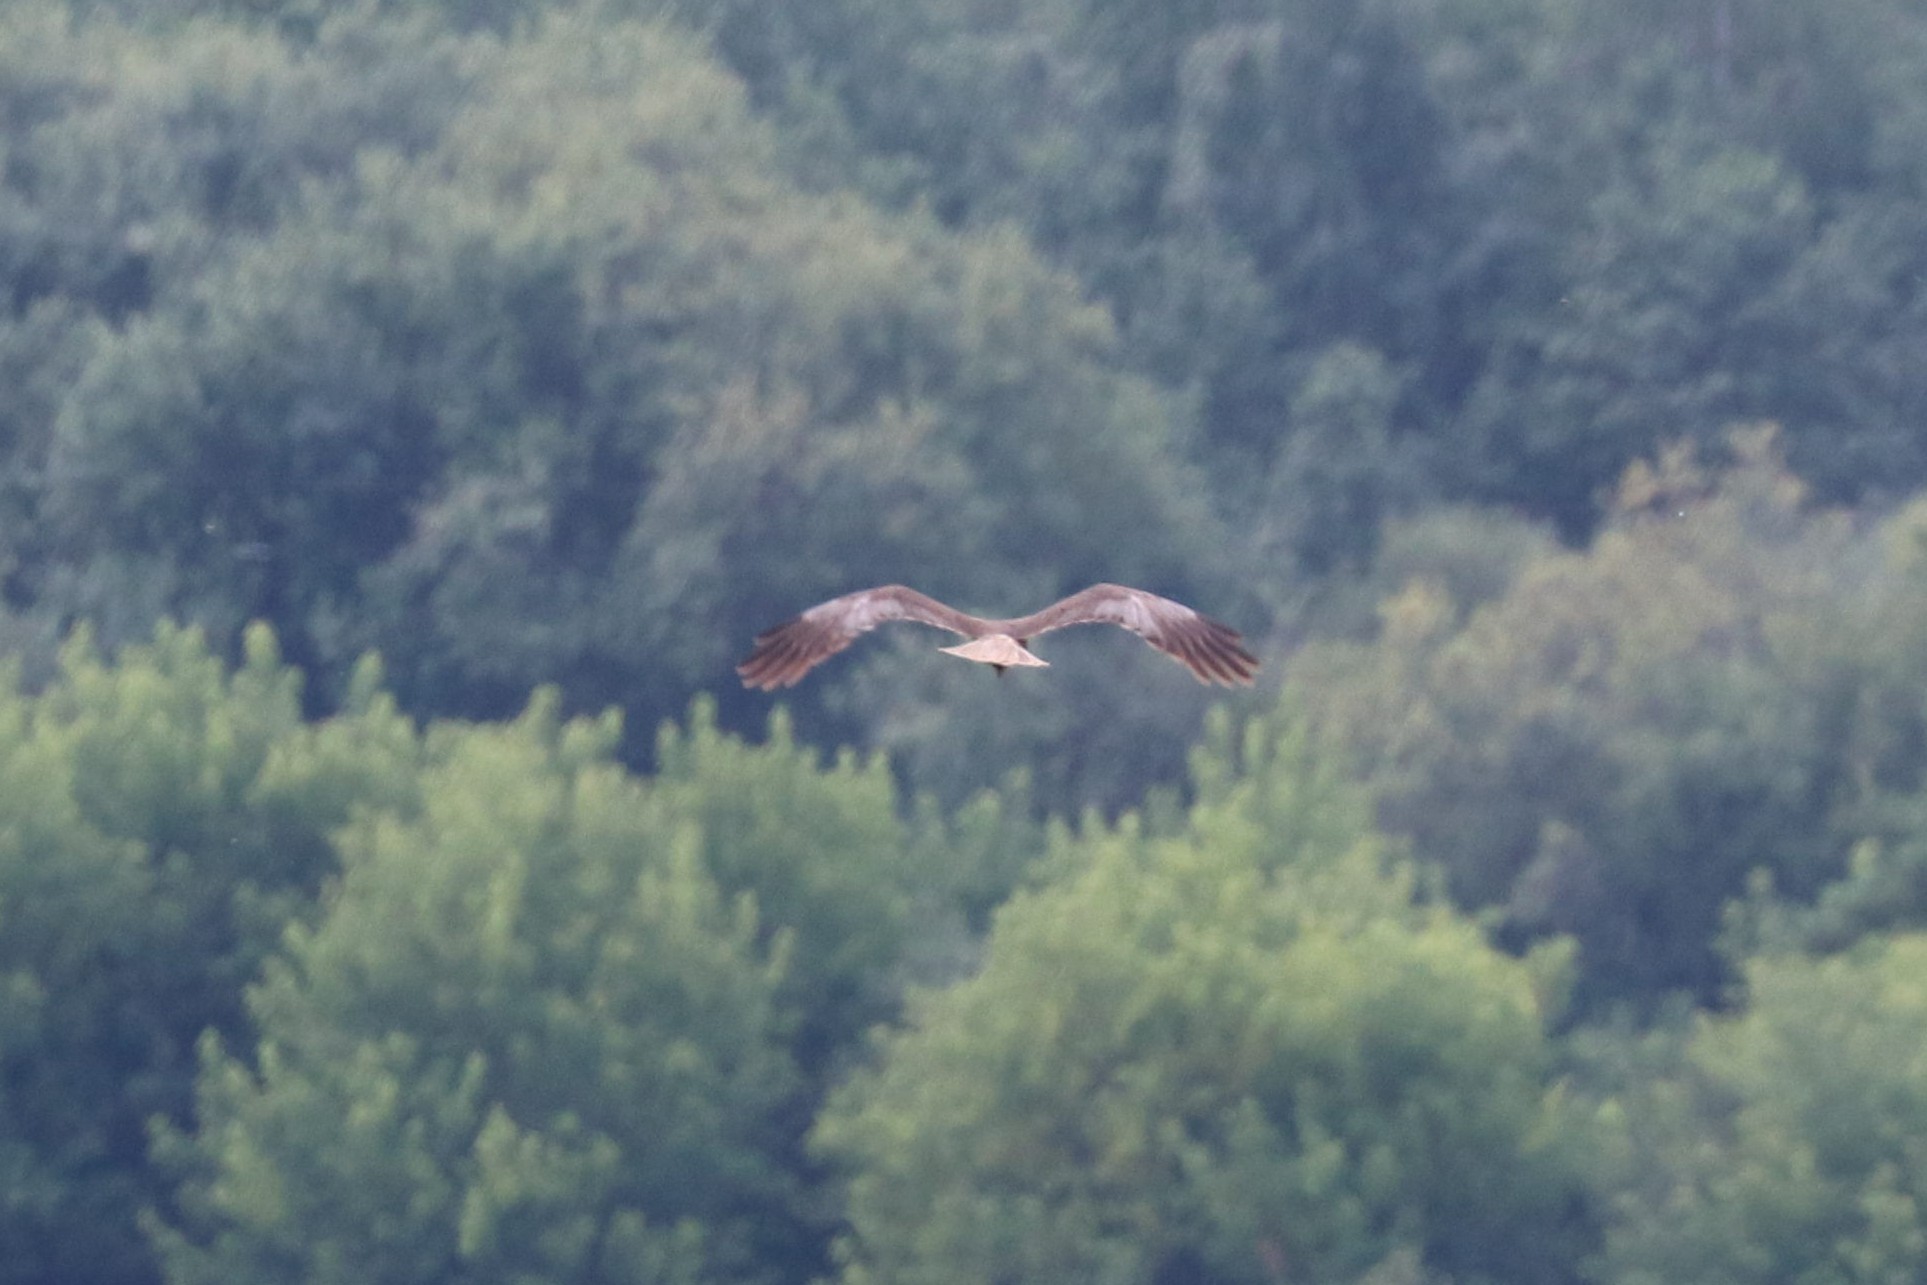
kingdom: Animalia
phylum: Chordata
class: Aves
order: Accipitriformes
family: Accipitridae
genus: Circus
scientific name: Circus aeruginosus
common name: Western marsh harrier
